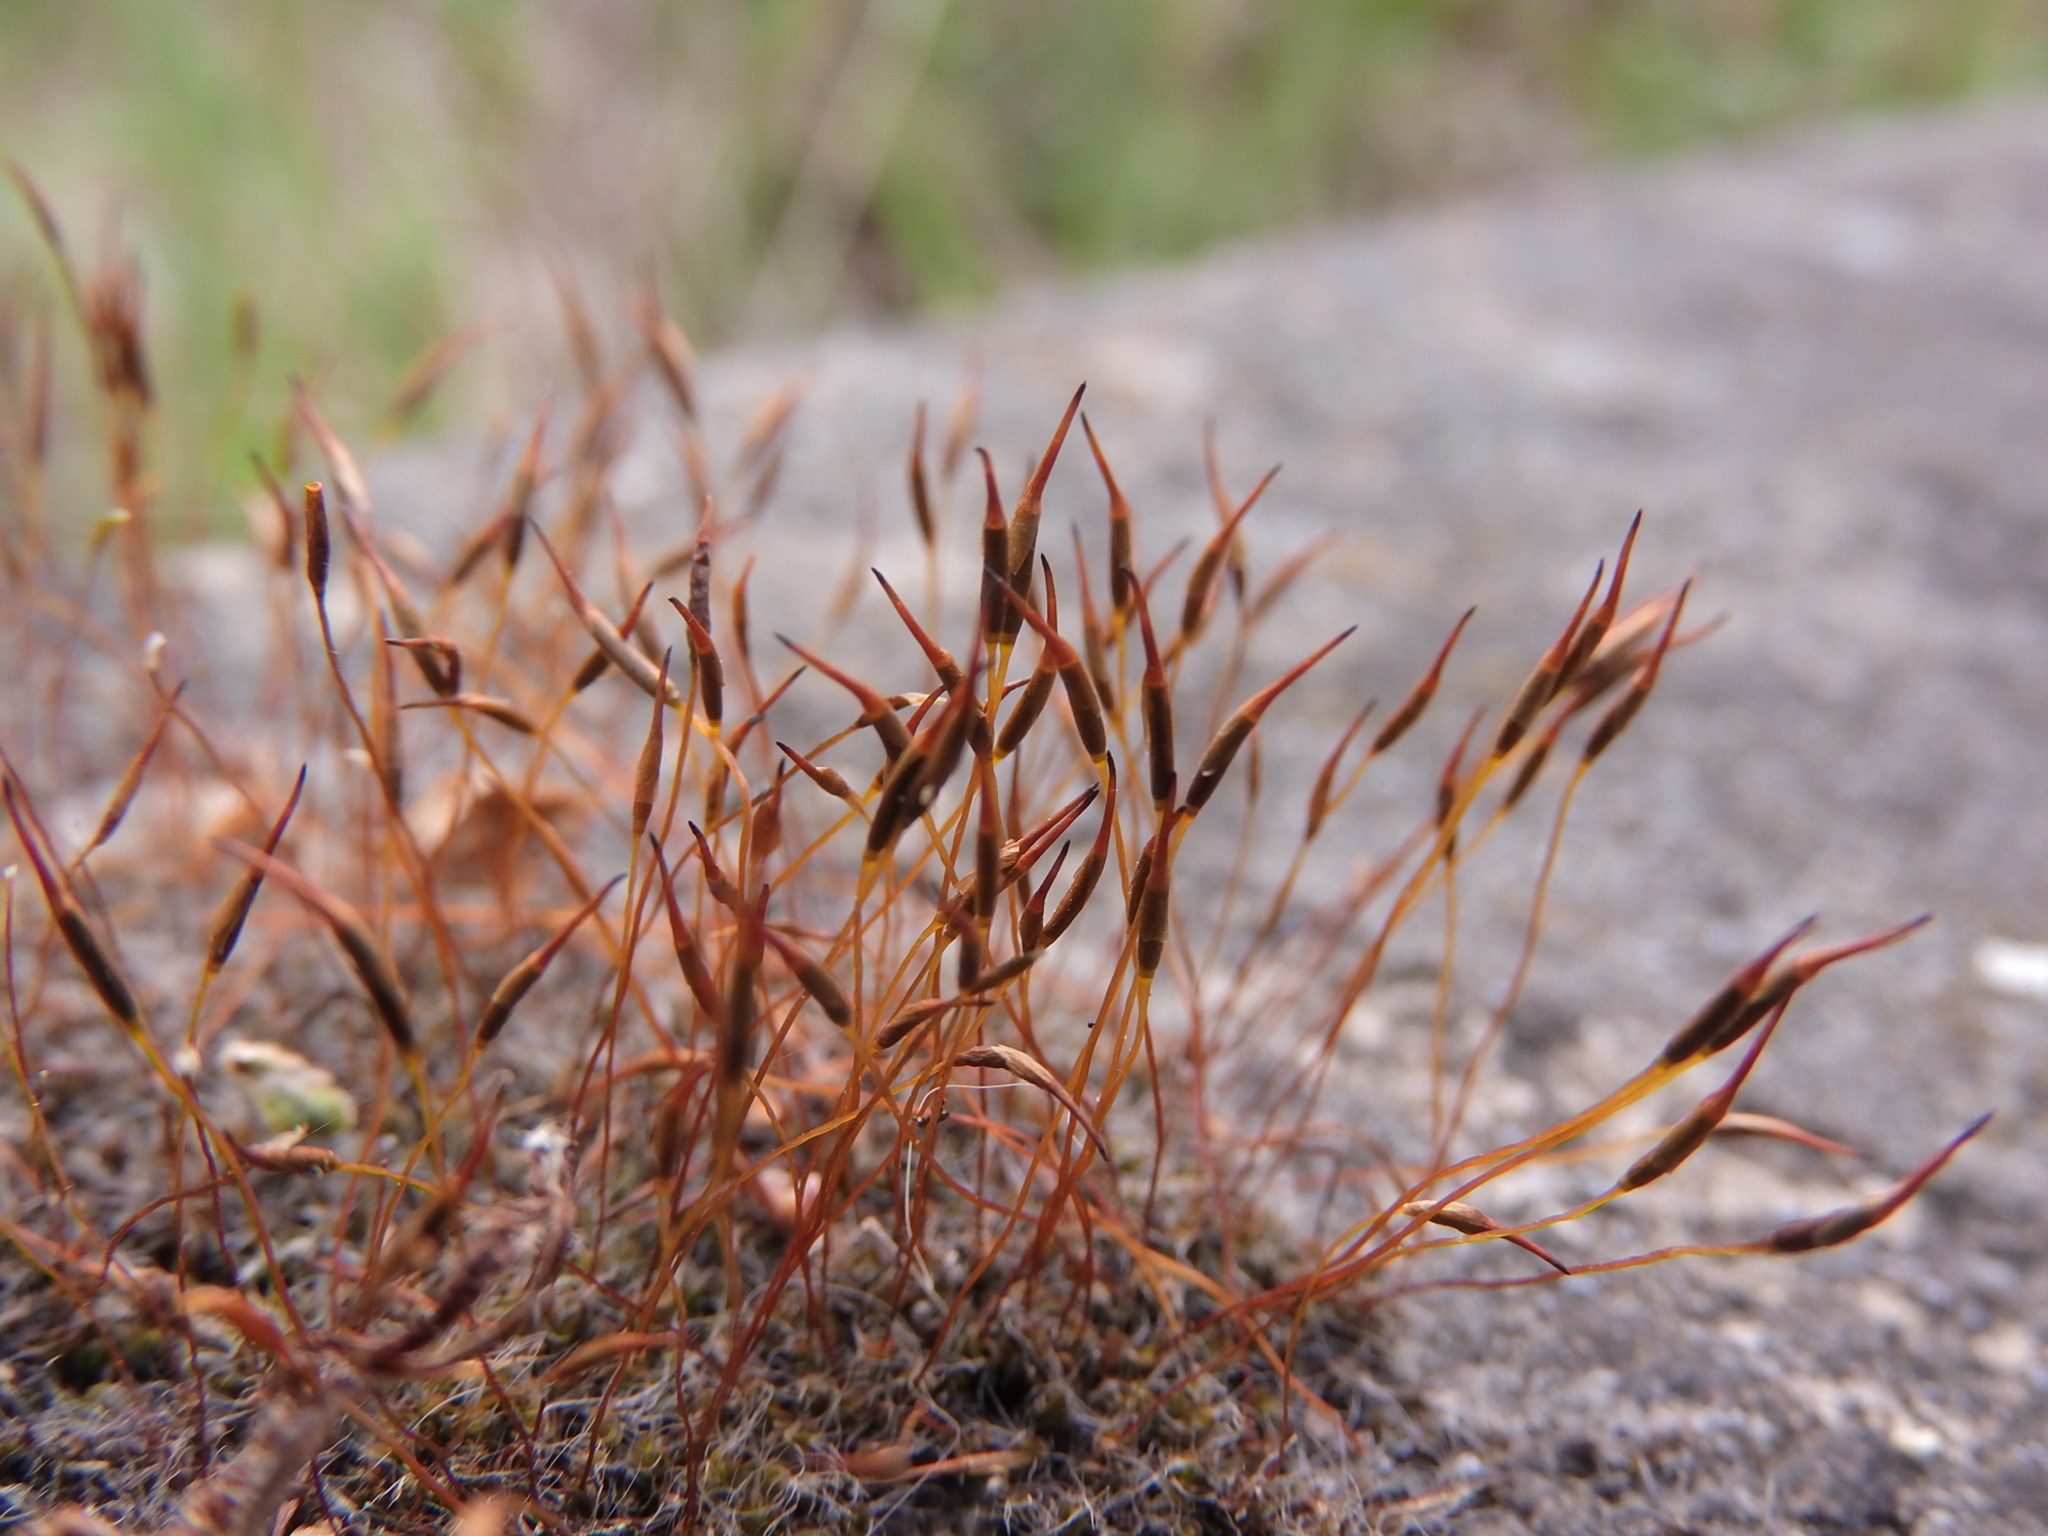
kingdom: Plantae
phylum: Bryophyta
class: Bryopsida
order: Pottiales
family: Pottiaceae
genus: Tortula
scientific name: Tortula muralis
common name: Wall screw-moss
